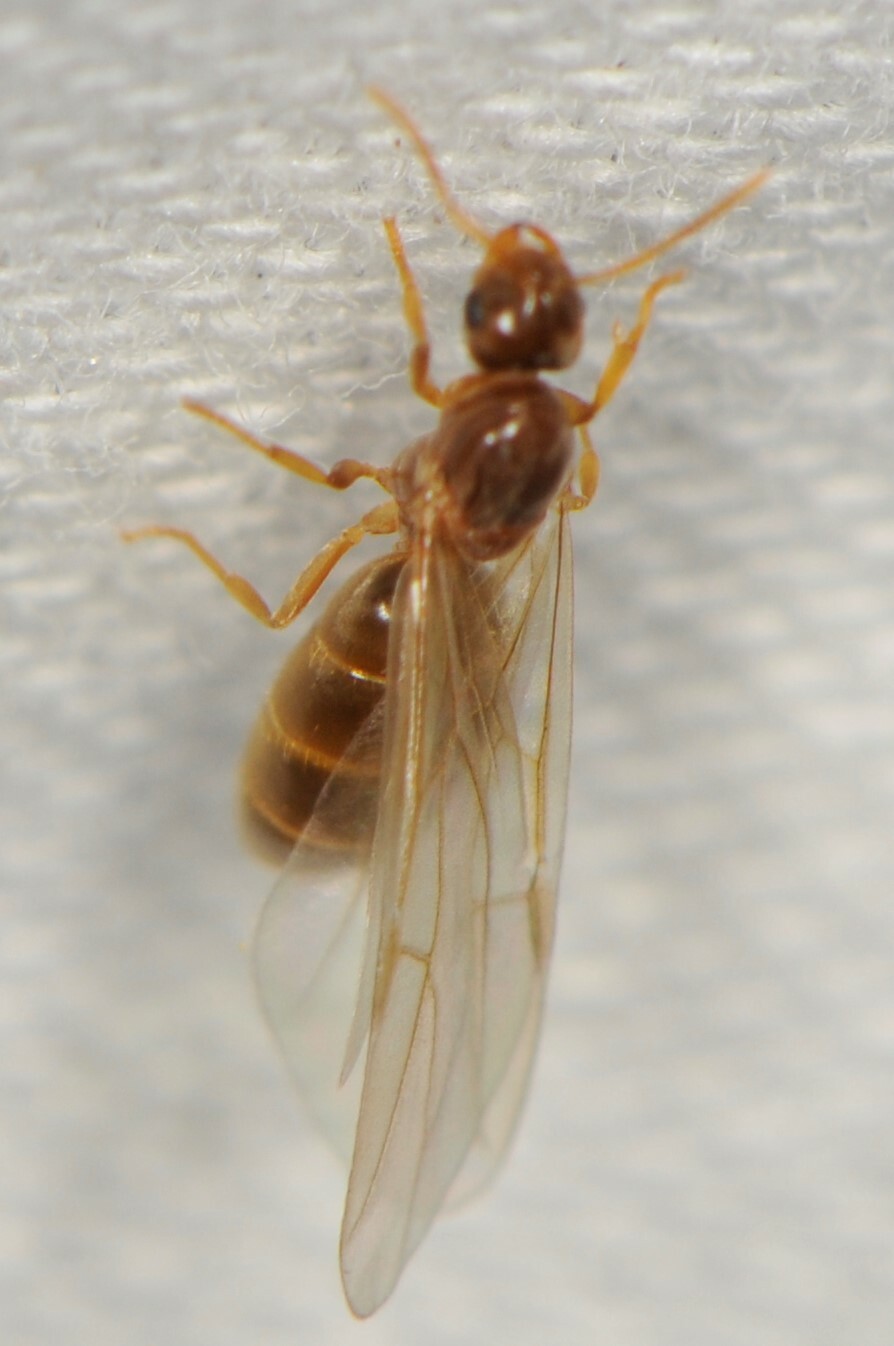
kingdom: Animalia
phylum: Arthropoda
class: Insecta
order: Hymenoptera
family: Formicidae
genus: Brachymyrmex
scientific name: Brachymyrmex depilis
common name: Hairless rover ant
